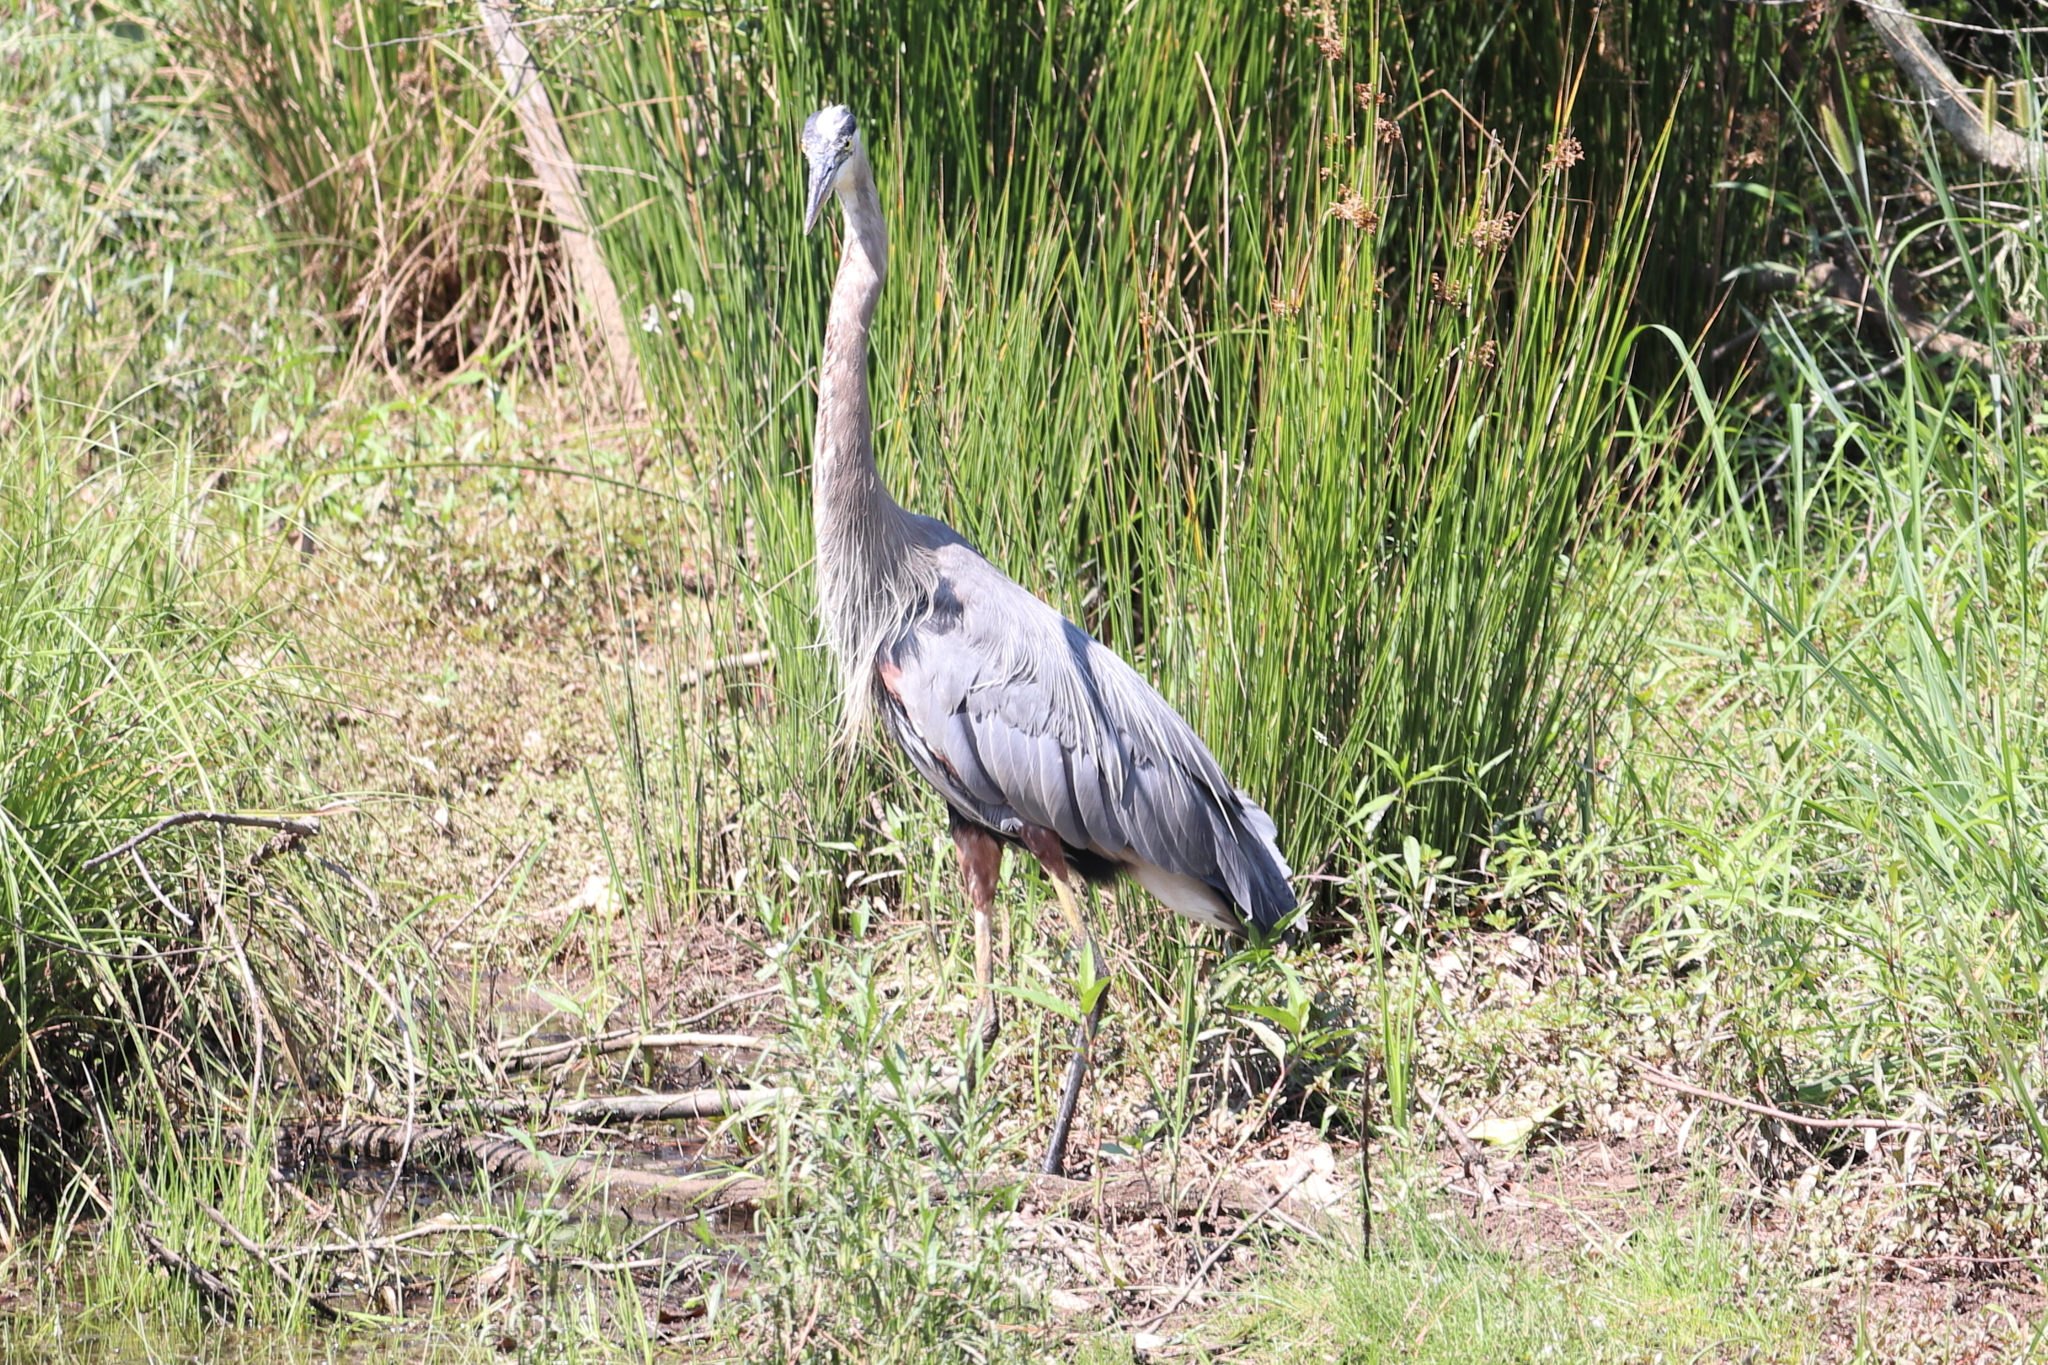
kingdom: Animalia
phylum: Chordata
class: Aves
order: Pelecaniformes
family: Ardeidae
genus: Ardea
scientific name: Ardea herodias
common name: Great blue heron
